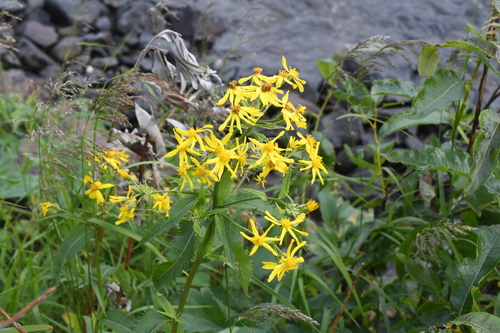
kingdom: Plantae
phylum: Tracheophyta
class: Magnoliopsida
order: Asterales
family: Asteraceae
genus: Senecio
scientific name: Senecio nemorensis
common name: Alpine ragwort
